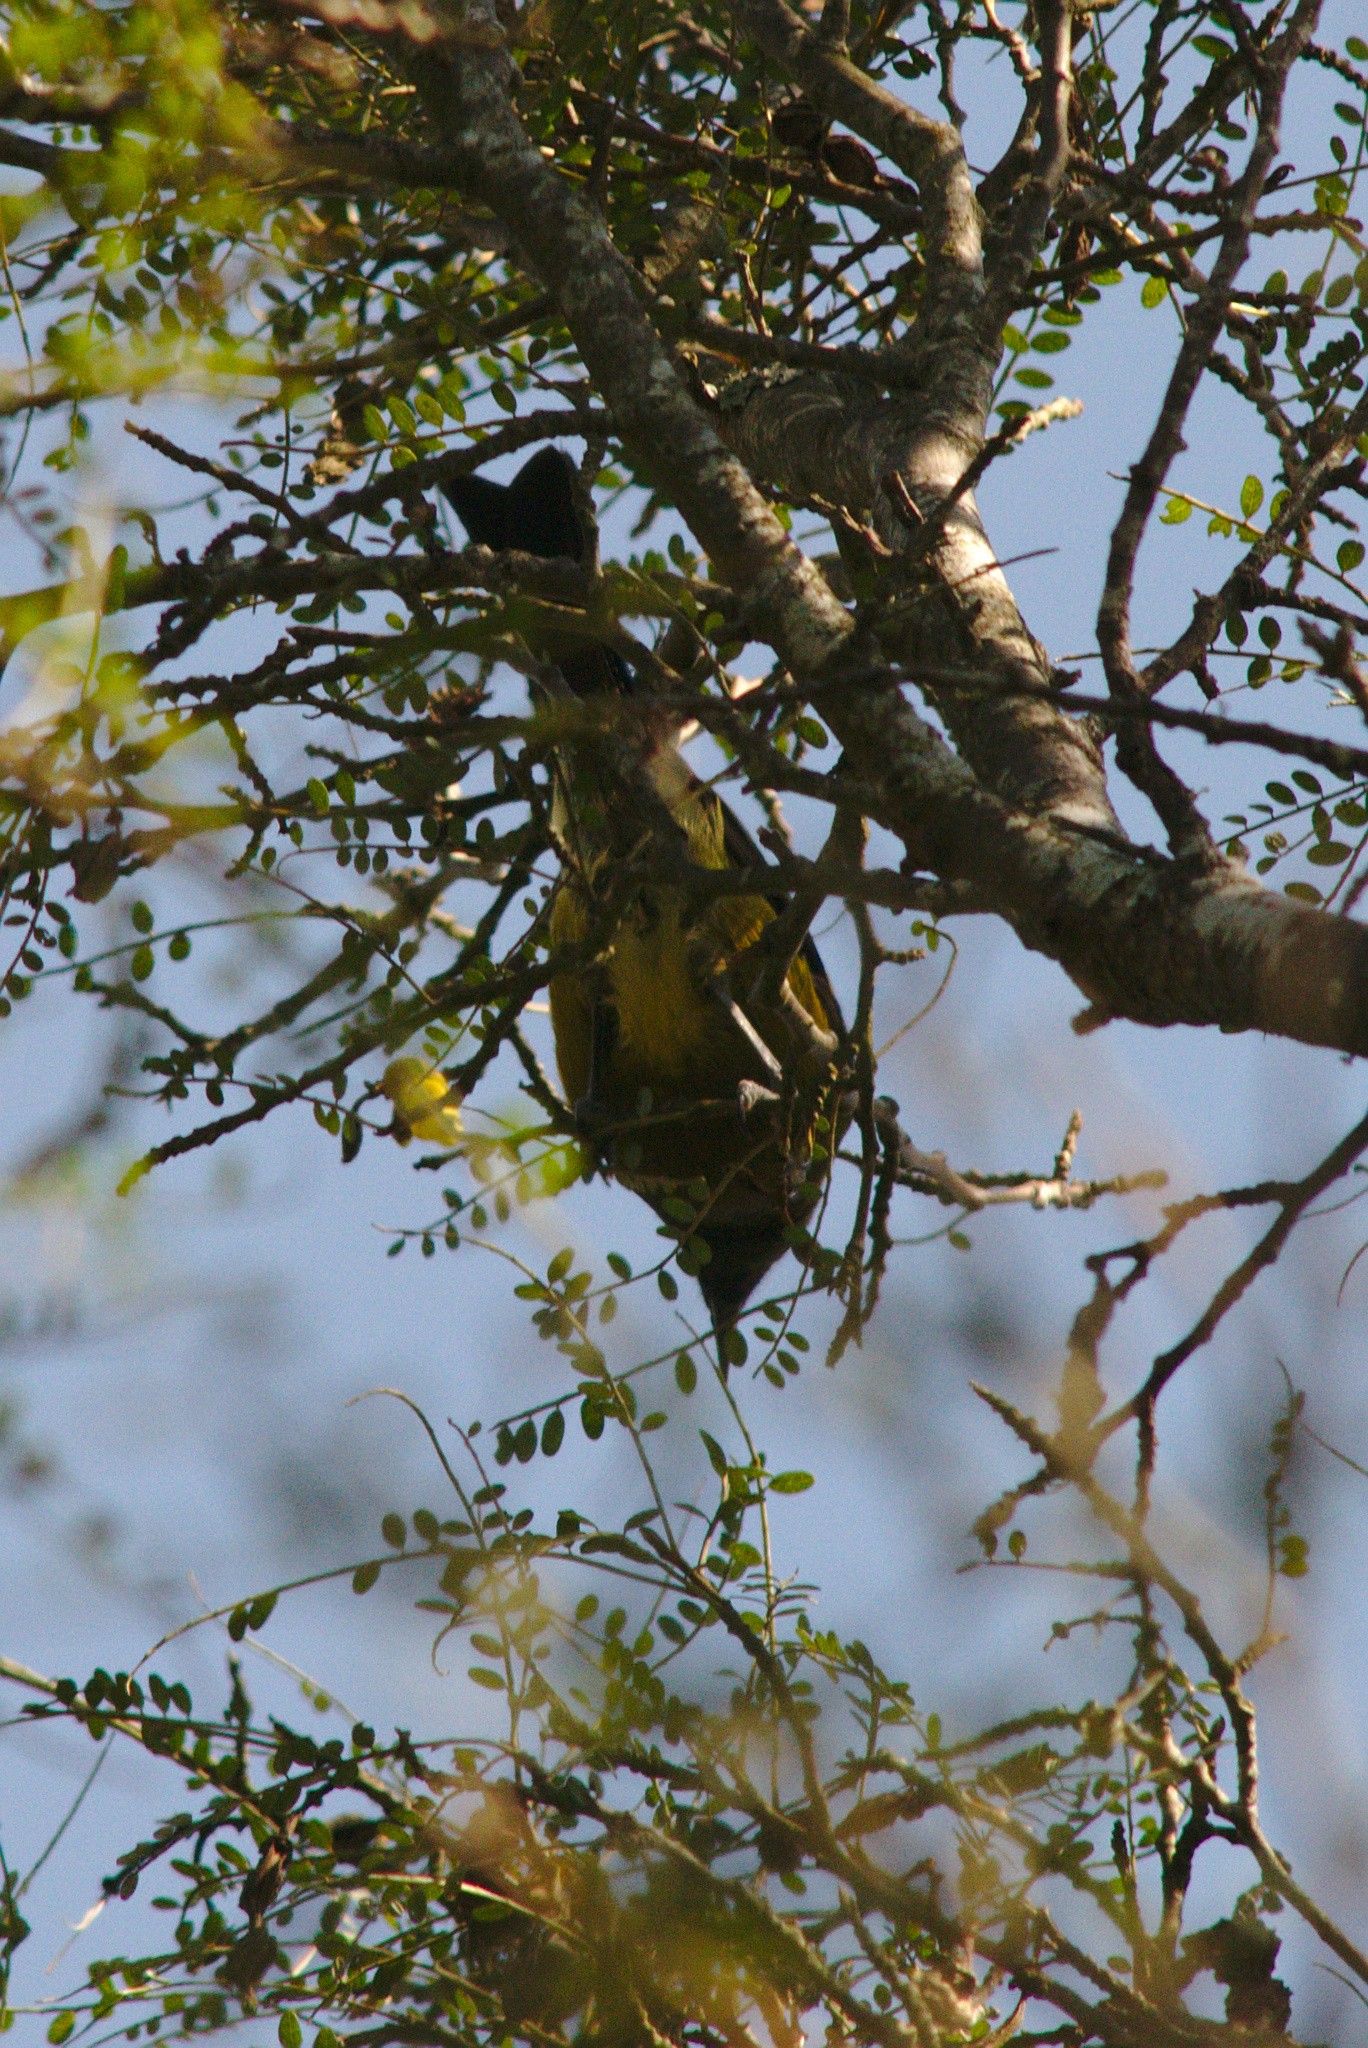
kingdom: Animalia
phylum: Chordata
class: Aves
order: Passeriformes
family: Meliphagidae
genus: Anthornis
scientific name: Anthornis melanura
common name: New zealand bellbird
